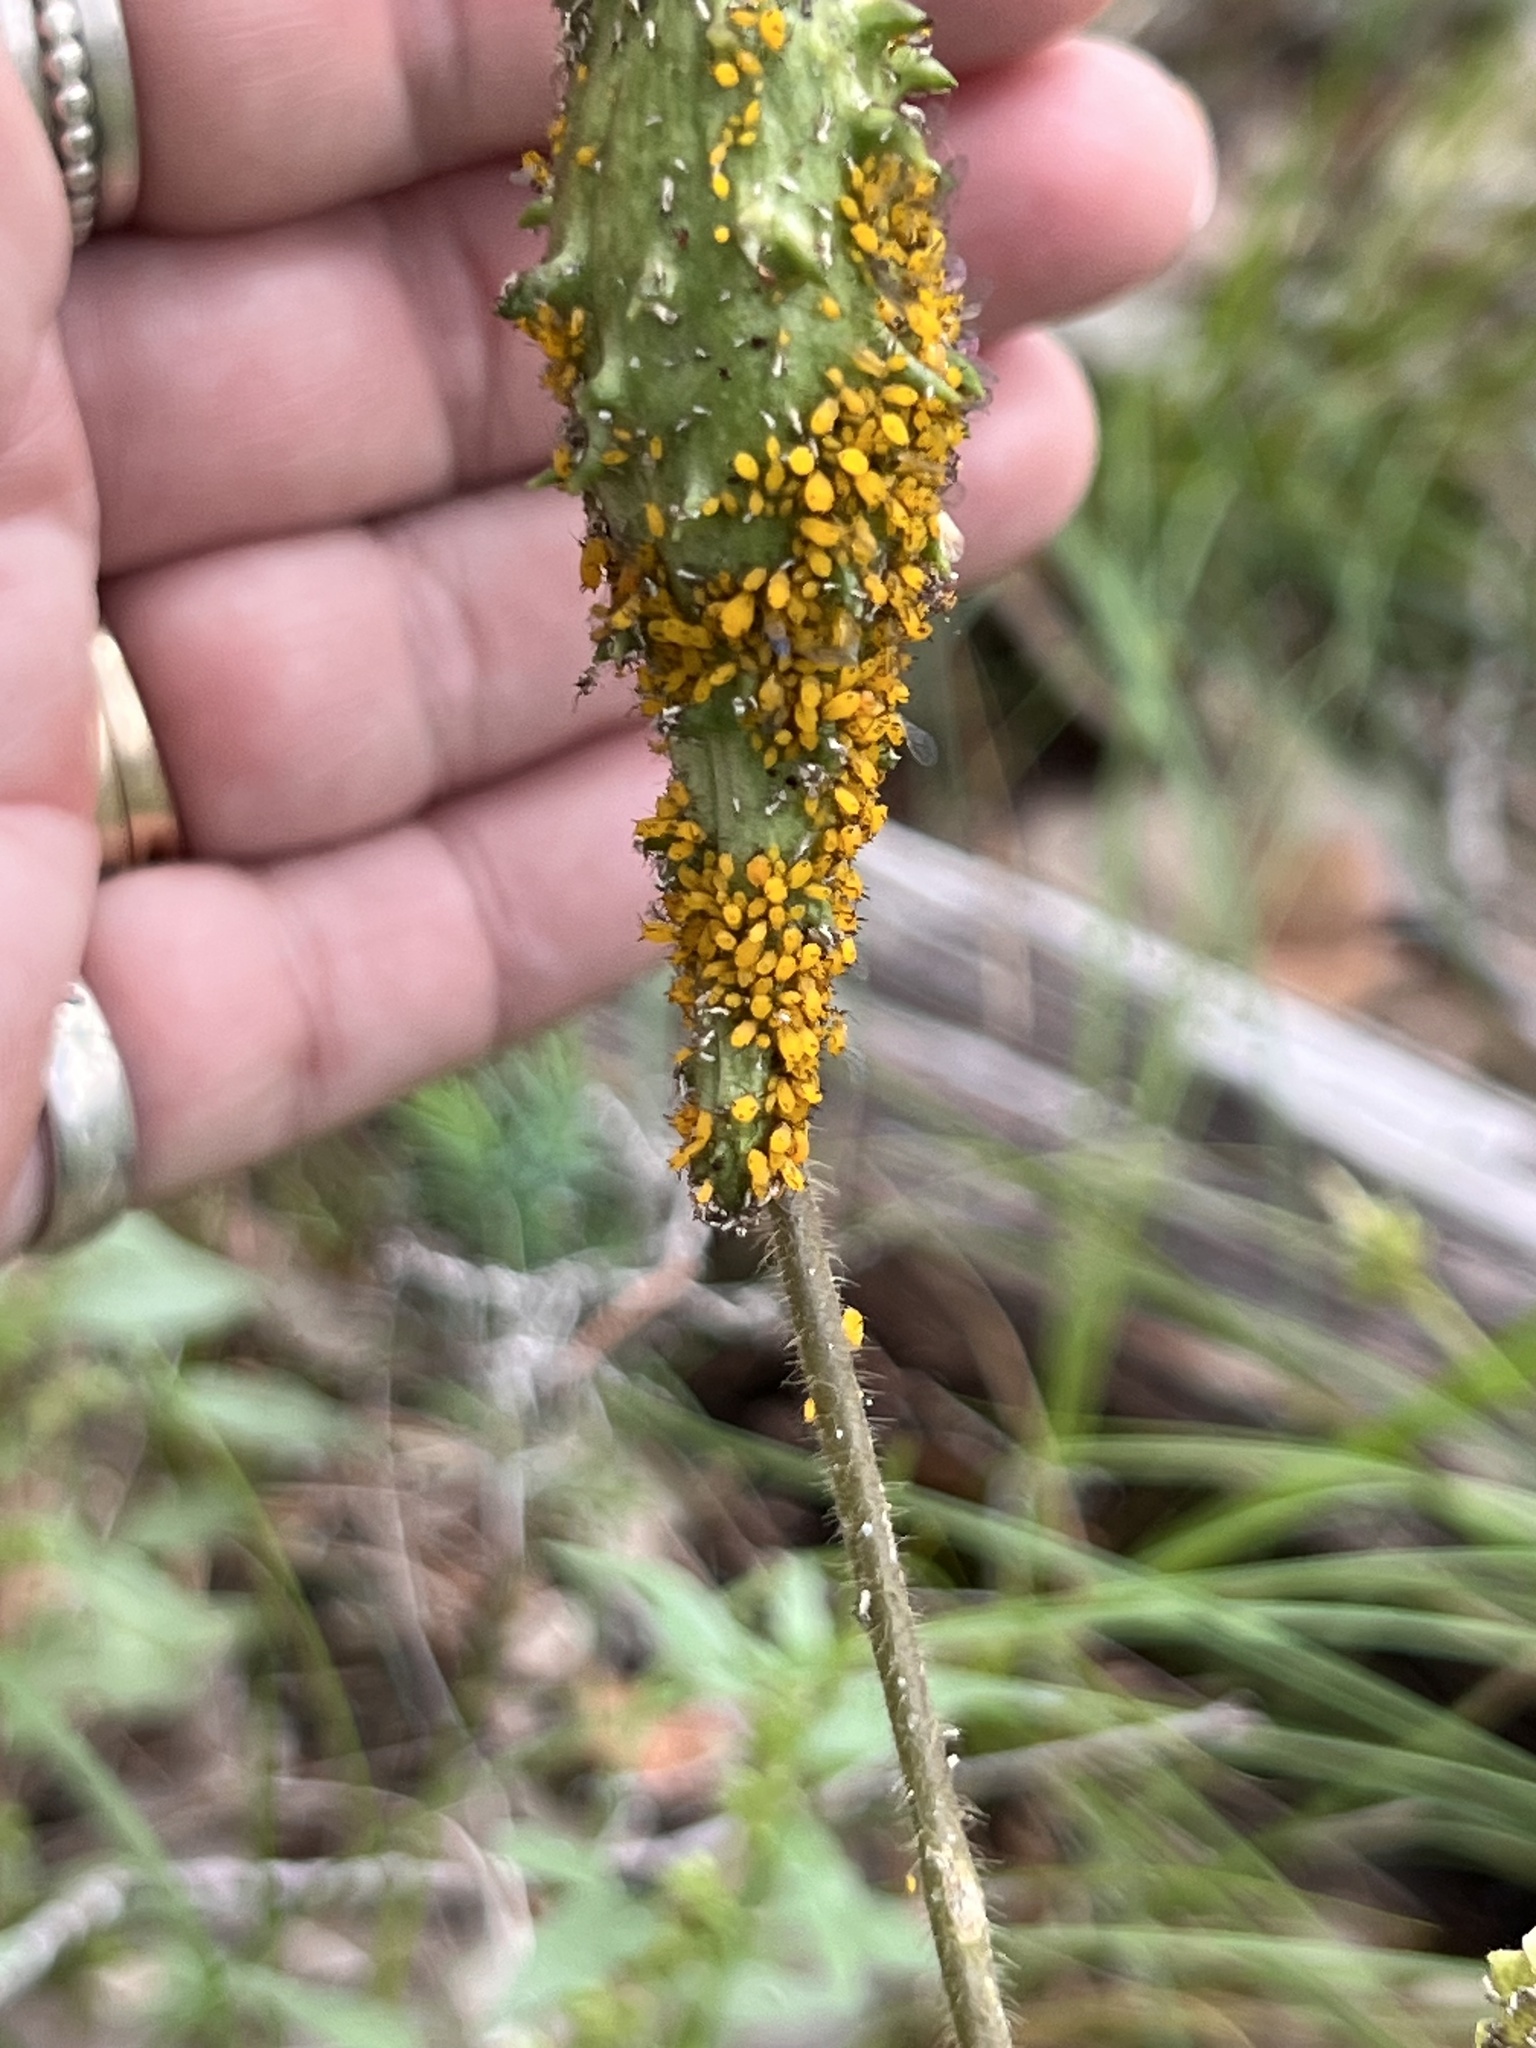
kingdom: Animalia
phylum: Arthropoda
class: Insecta
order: Hemiptera
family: Aphididae
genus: Aphis
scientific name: Aphis nerii
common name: Oleander aphid
